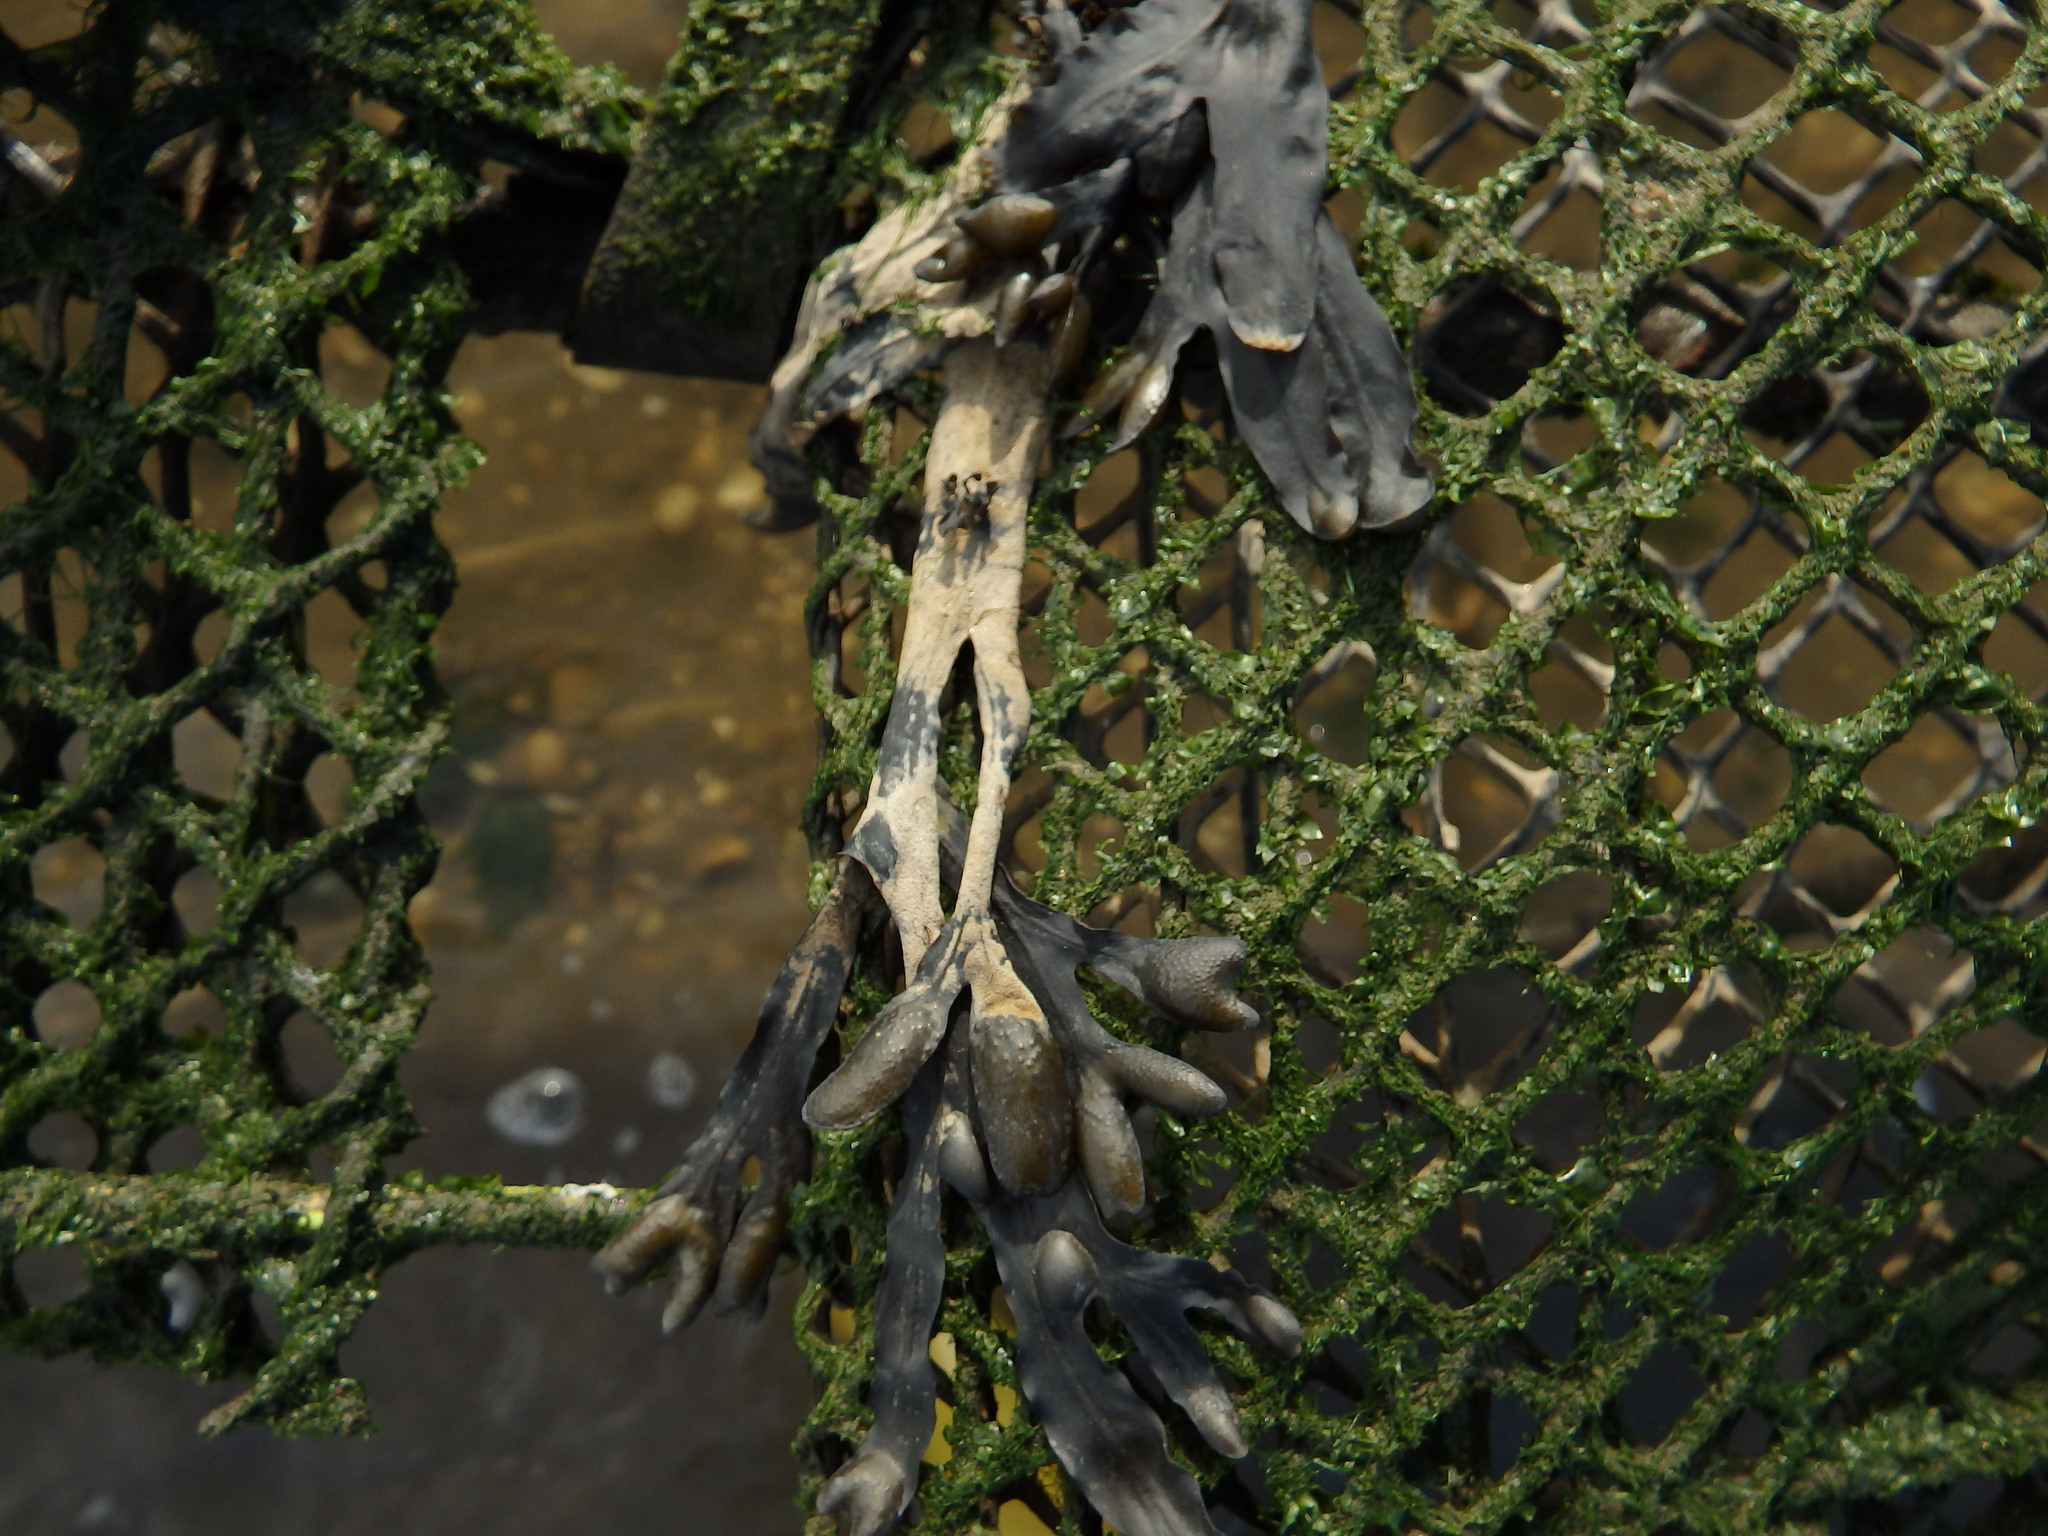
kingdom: Chromista
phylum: Ochrophyta
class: Phaeophyceae
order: Fucales
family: Fucaceae
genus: Fucus
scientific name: Fucus vesiculosus
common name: Bladder wrack
